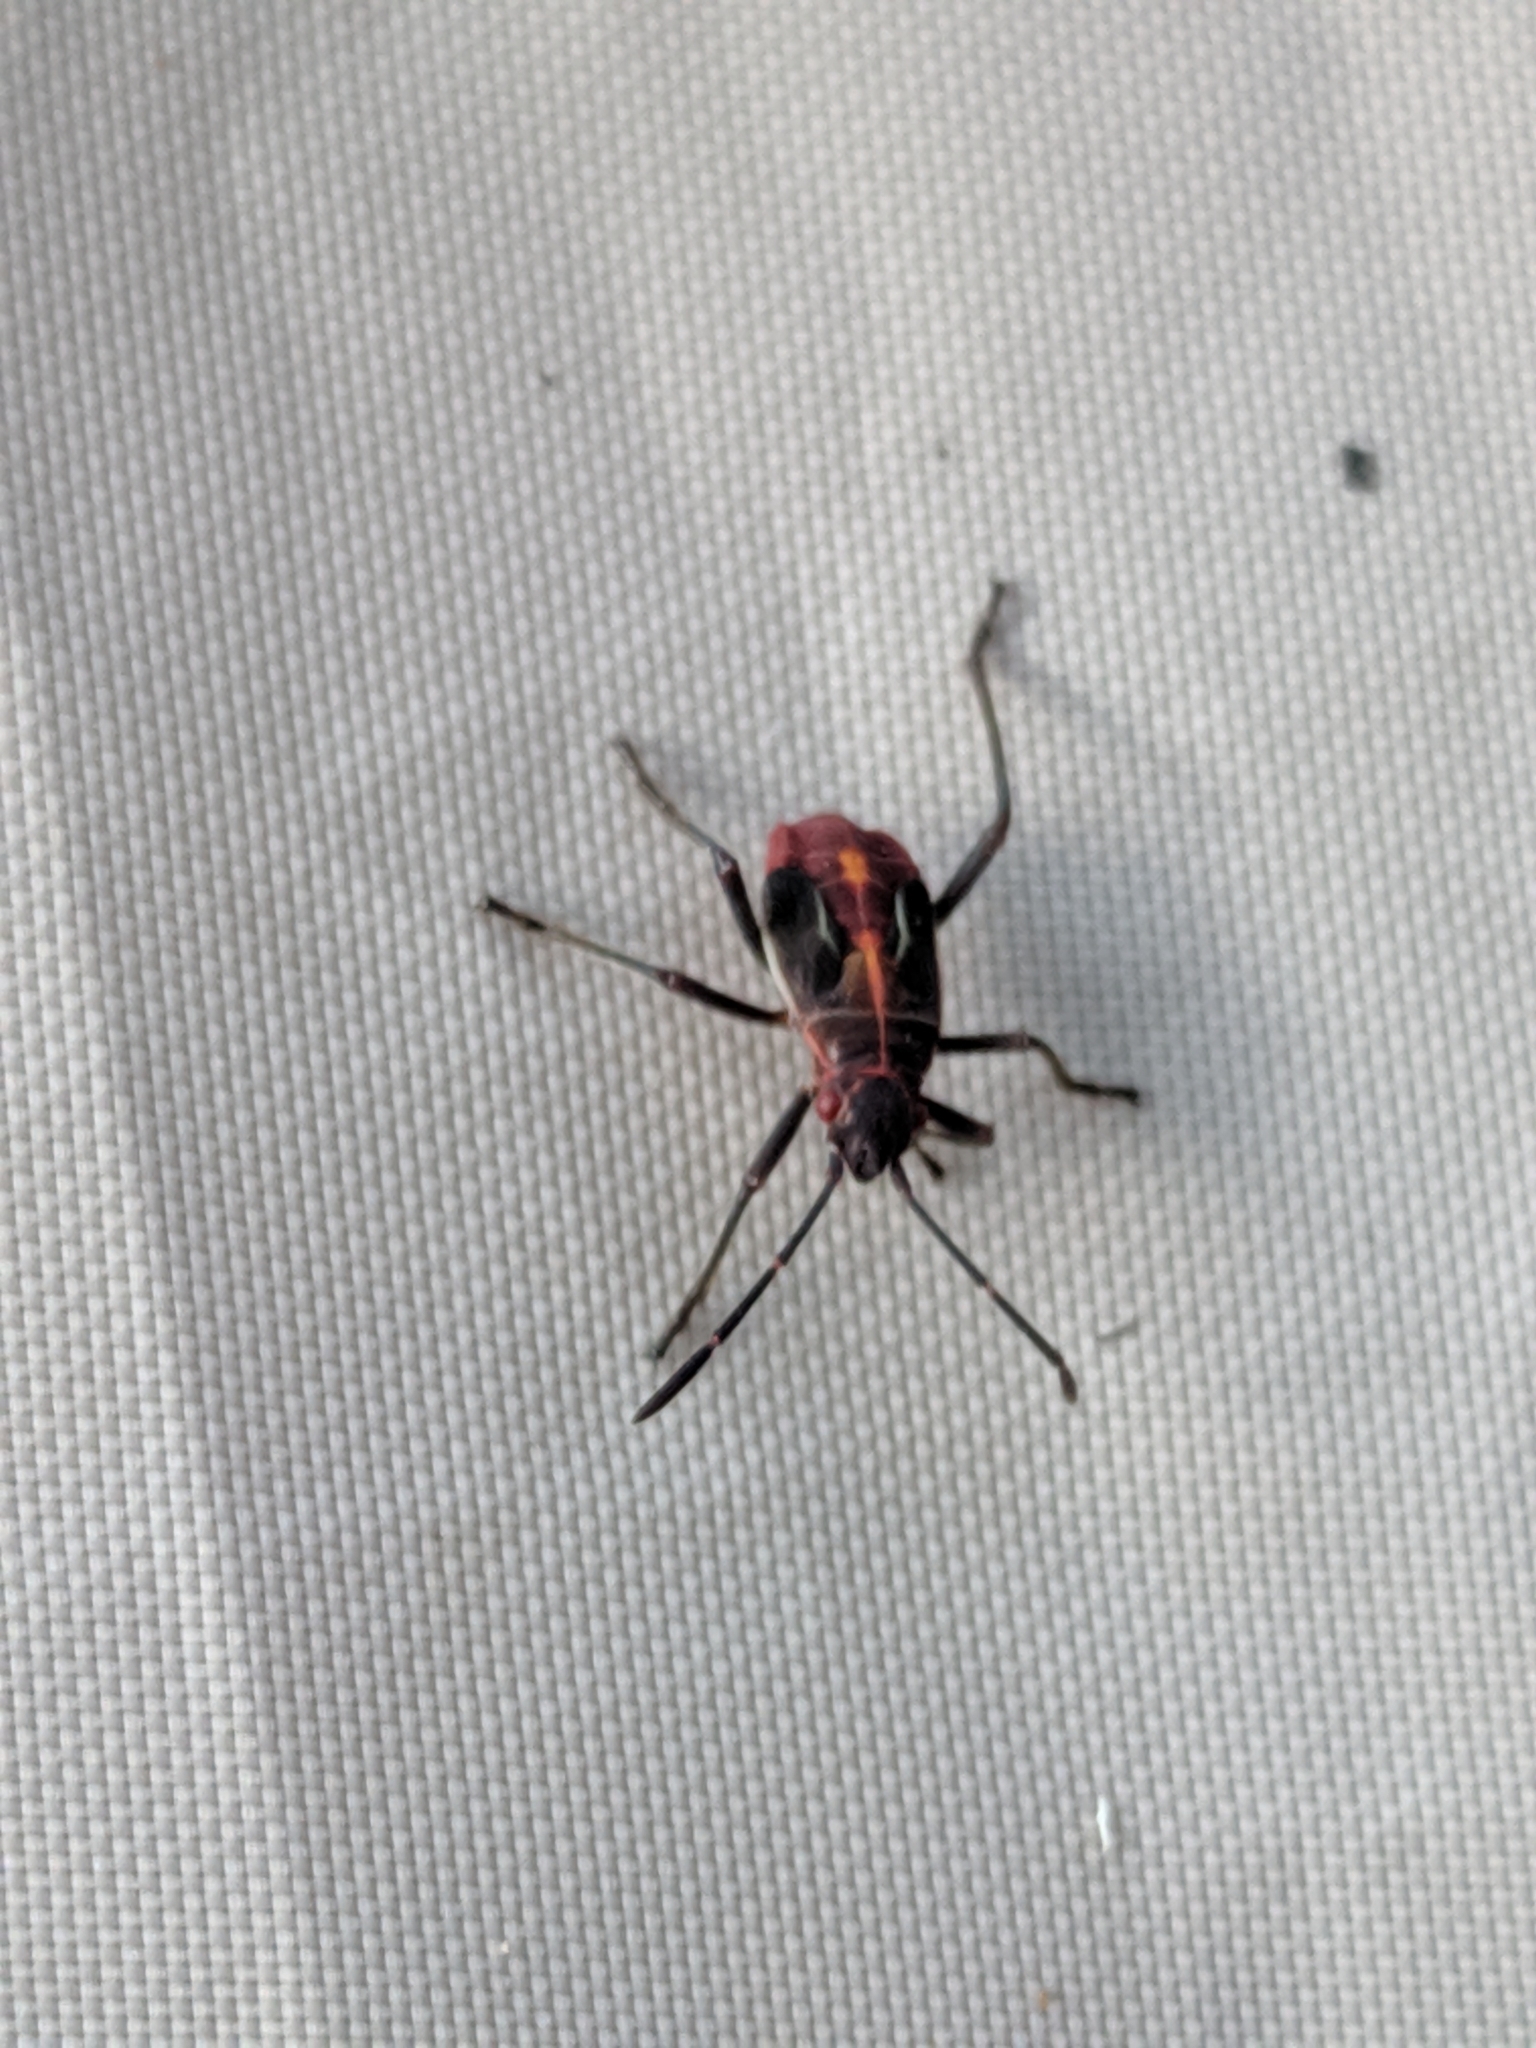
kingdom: Animalia
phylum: Arthropoda
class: Insecta
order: Hemiptera
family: Rhopalidae
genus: Boisea
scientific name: Boisea rubrolineata
